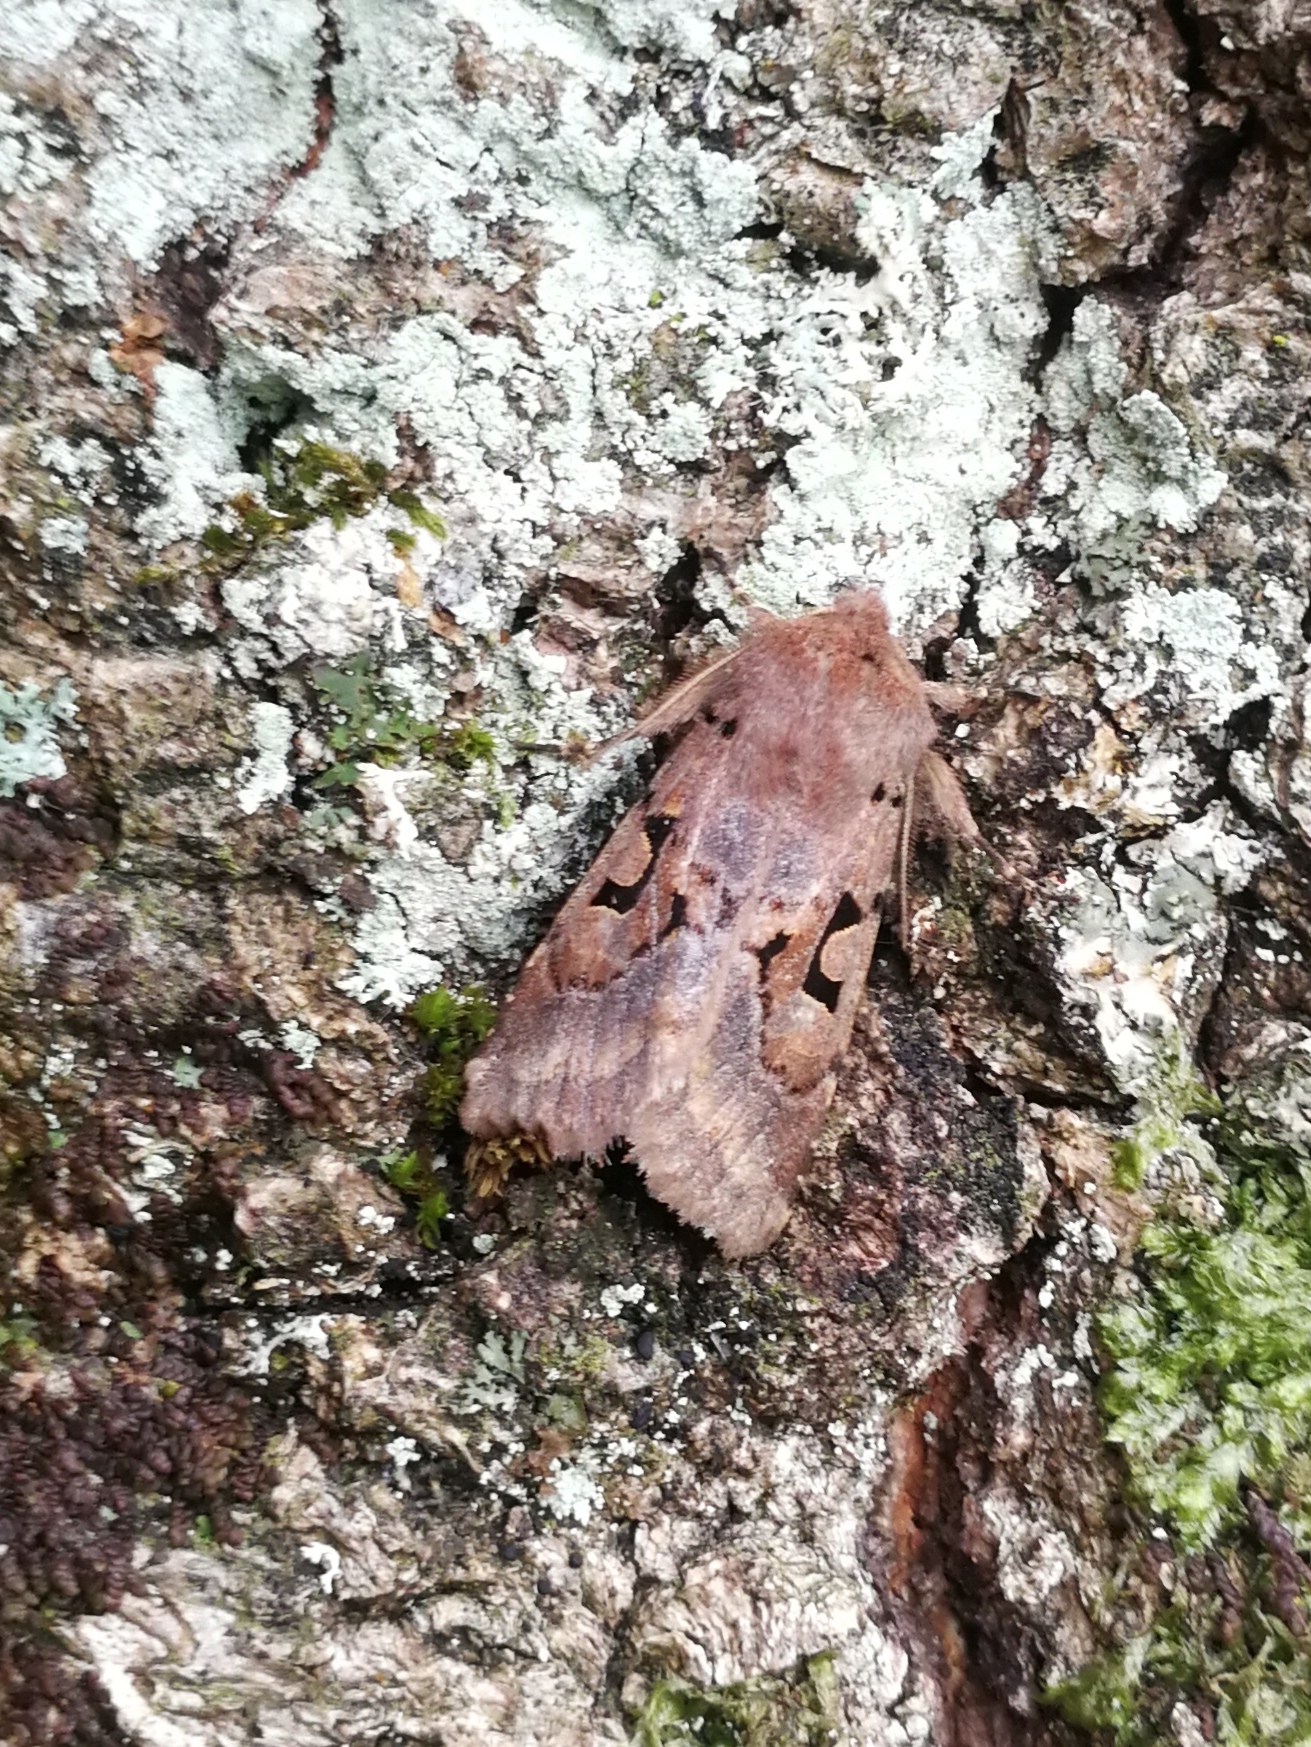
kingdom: Animalia
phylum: Arthropoda
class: Insecta
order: Lepidoptera
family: Noctuidae
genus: Orthosia
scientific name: Orthosia gothica
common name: Hebrew character
